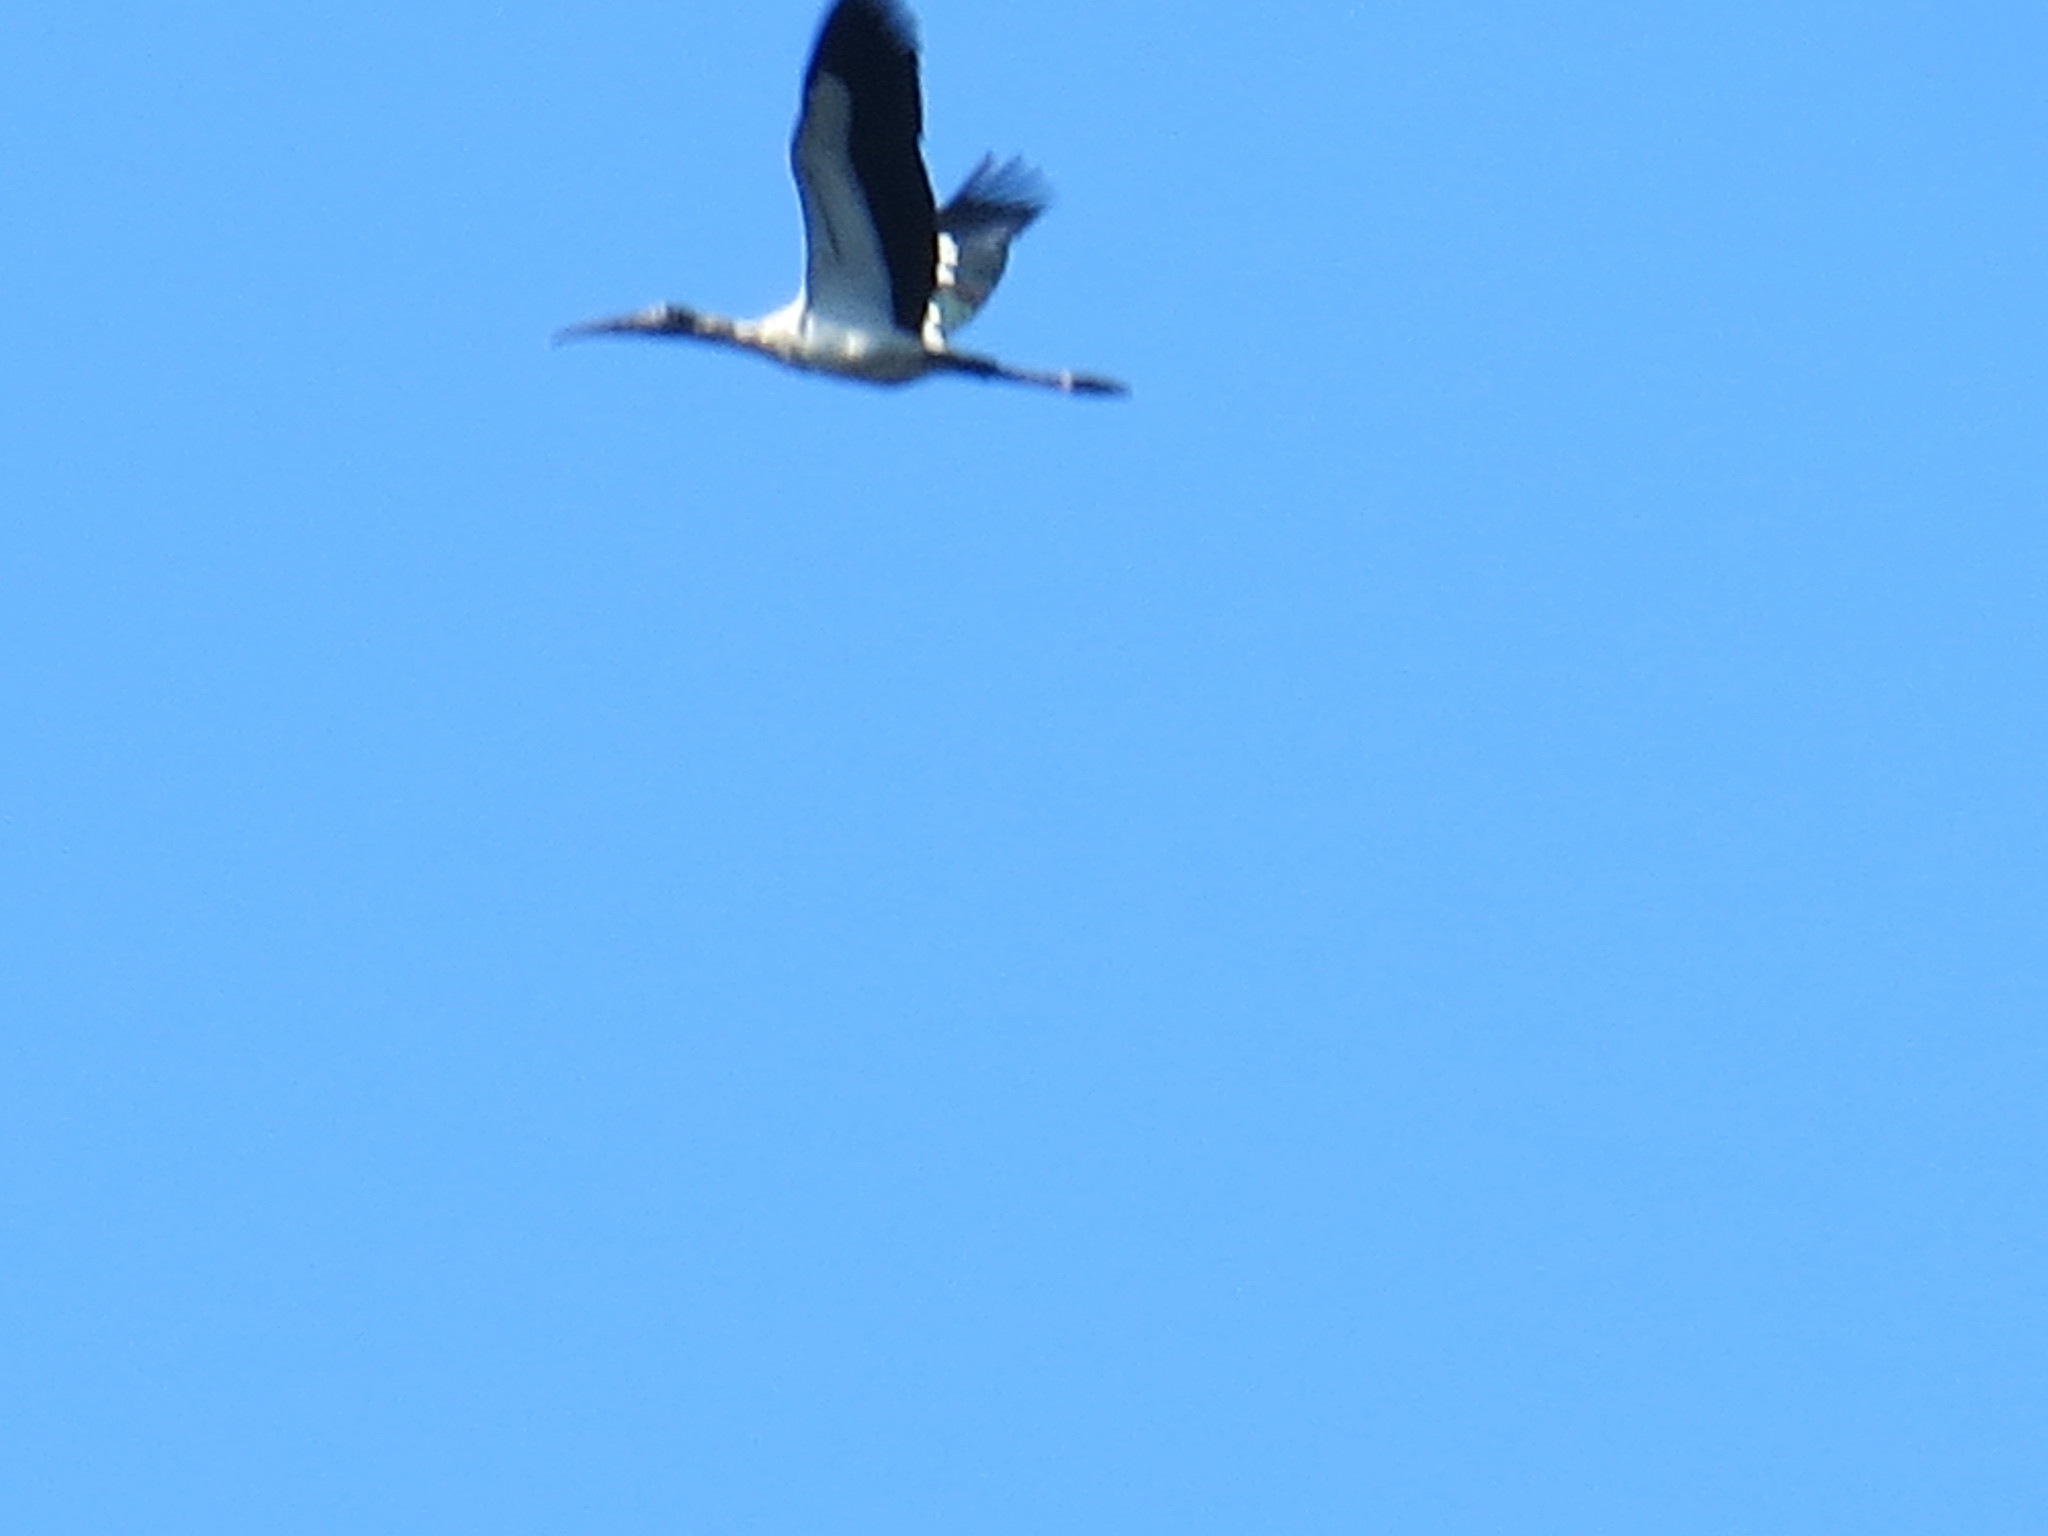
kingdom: Animalia
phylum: Chordata
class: Aves
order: Ciconiiformes
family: Ciconiidae
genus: Mycteria
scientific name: Mycteria americana
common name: Wood stork
